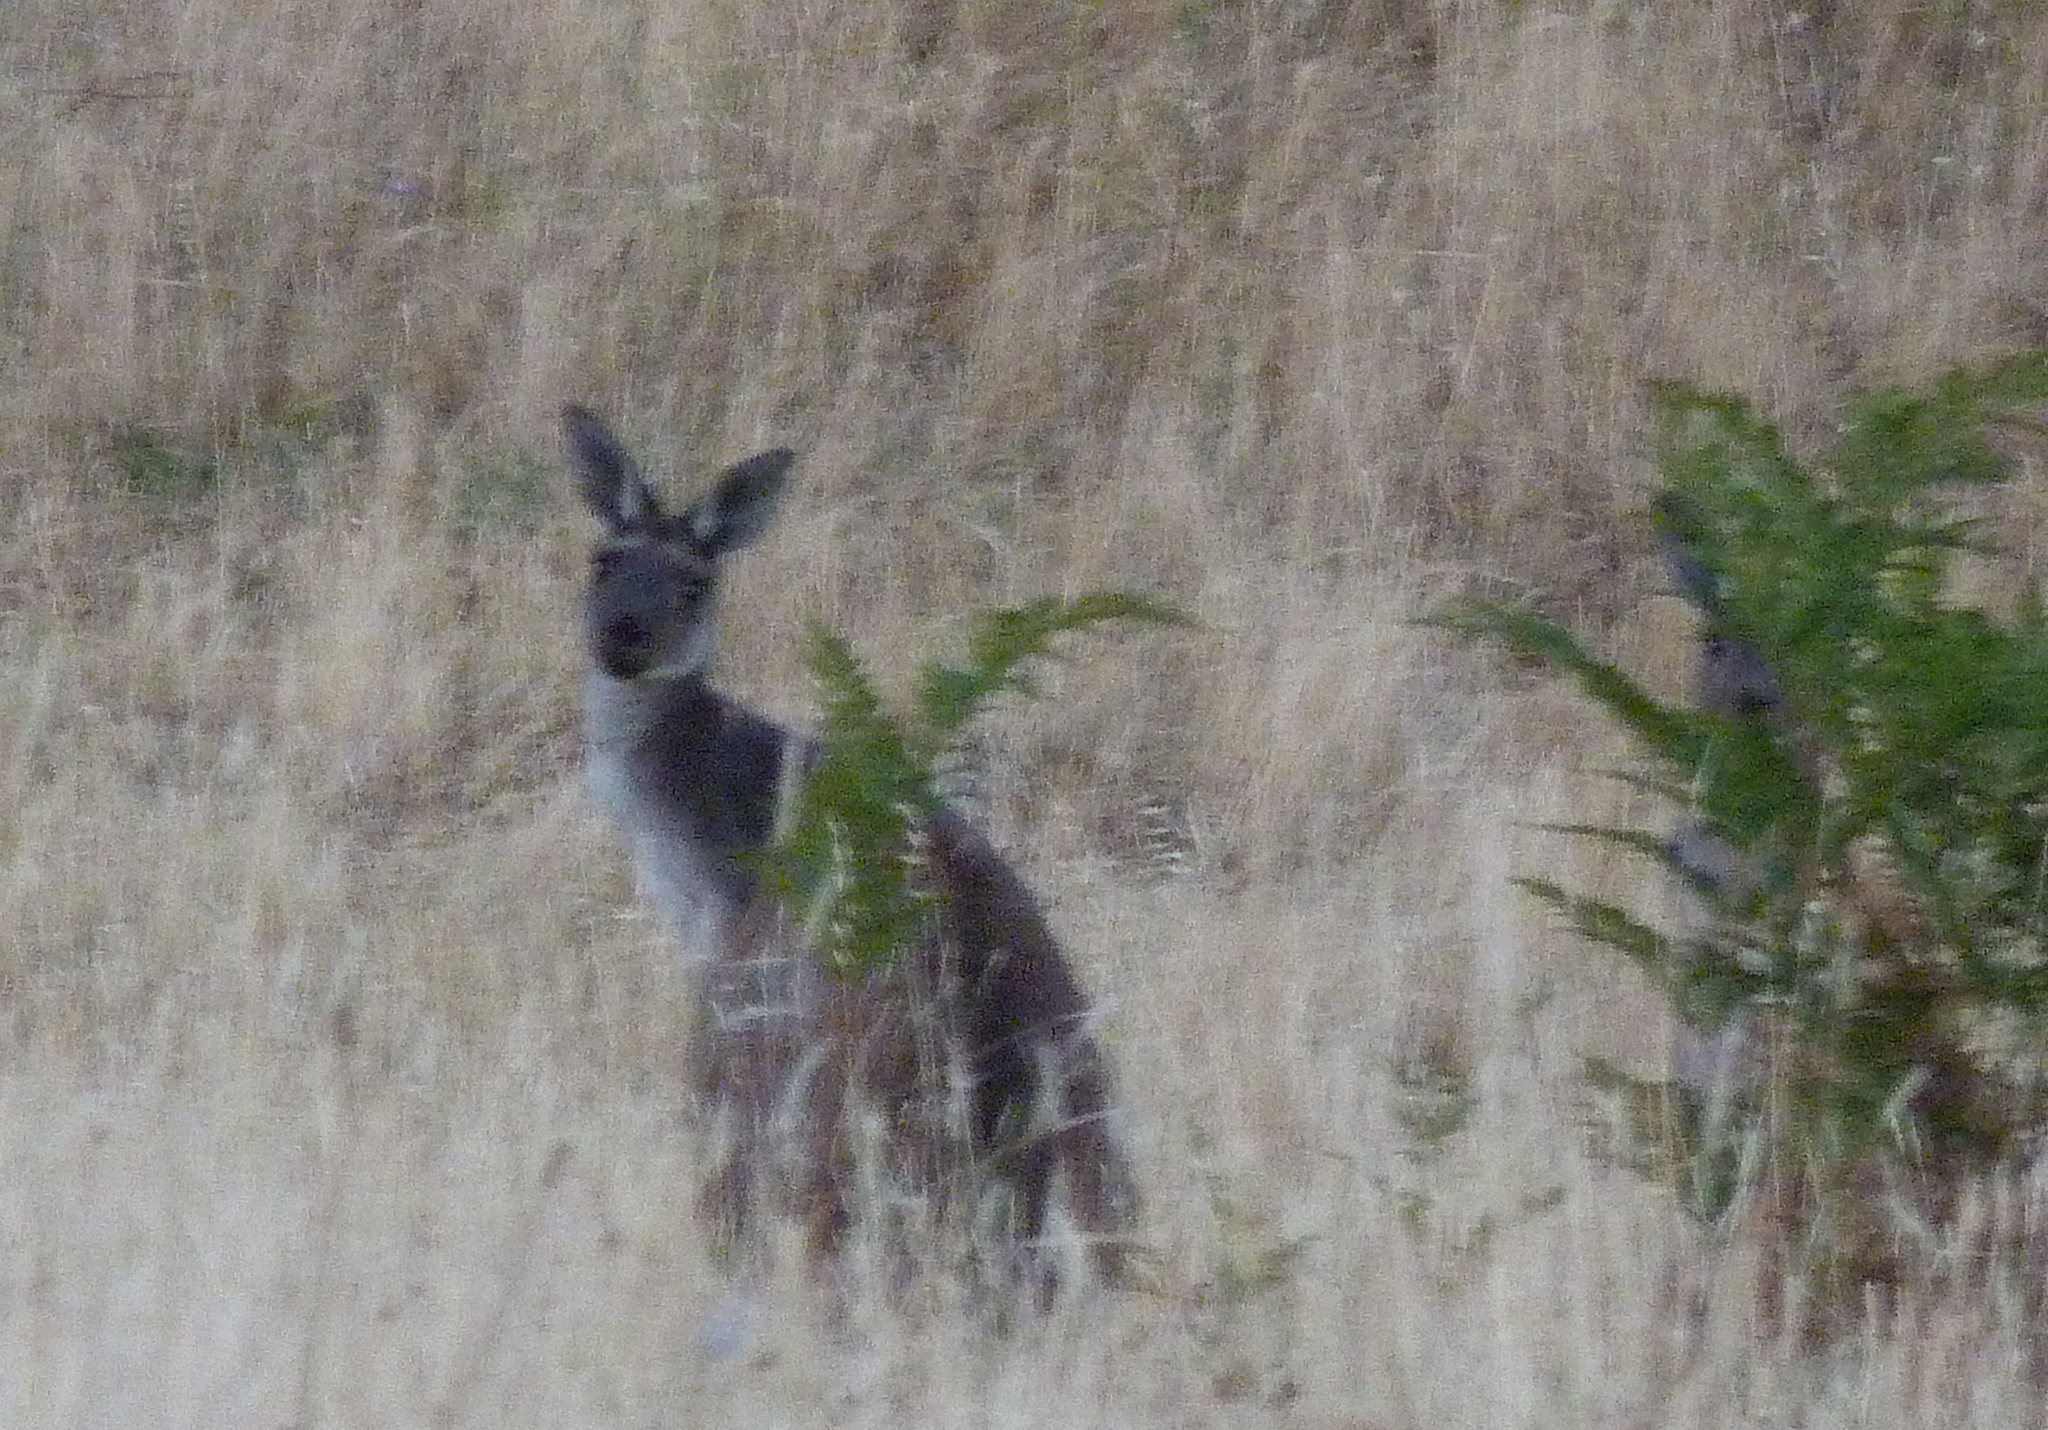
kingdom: Animalia
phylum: Chordata
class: Mammalia
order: Diprotodontia
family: Macropodidae
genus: Macropus
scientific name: Macropus fuliginosus
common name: Western grey kangaroo
